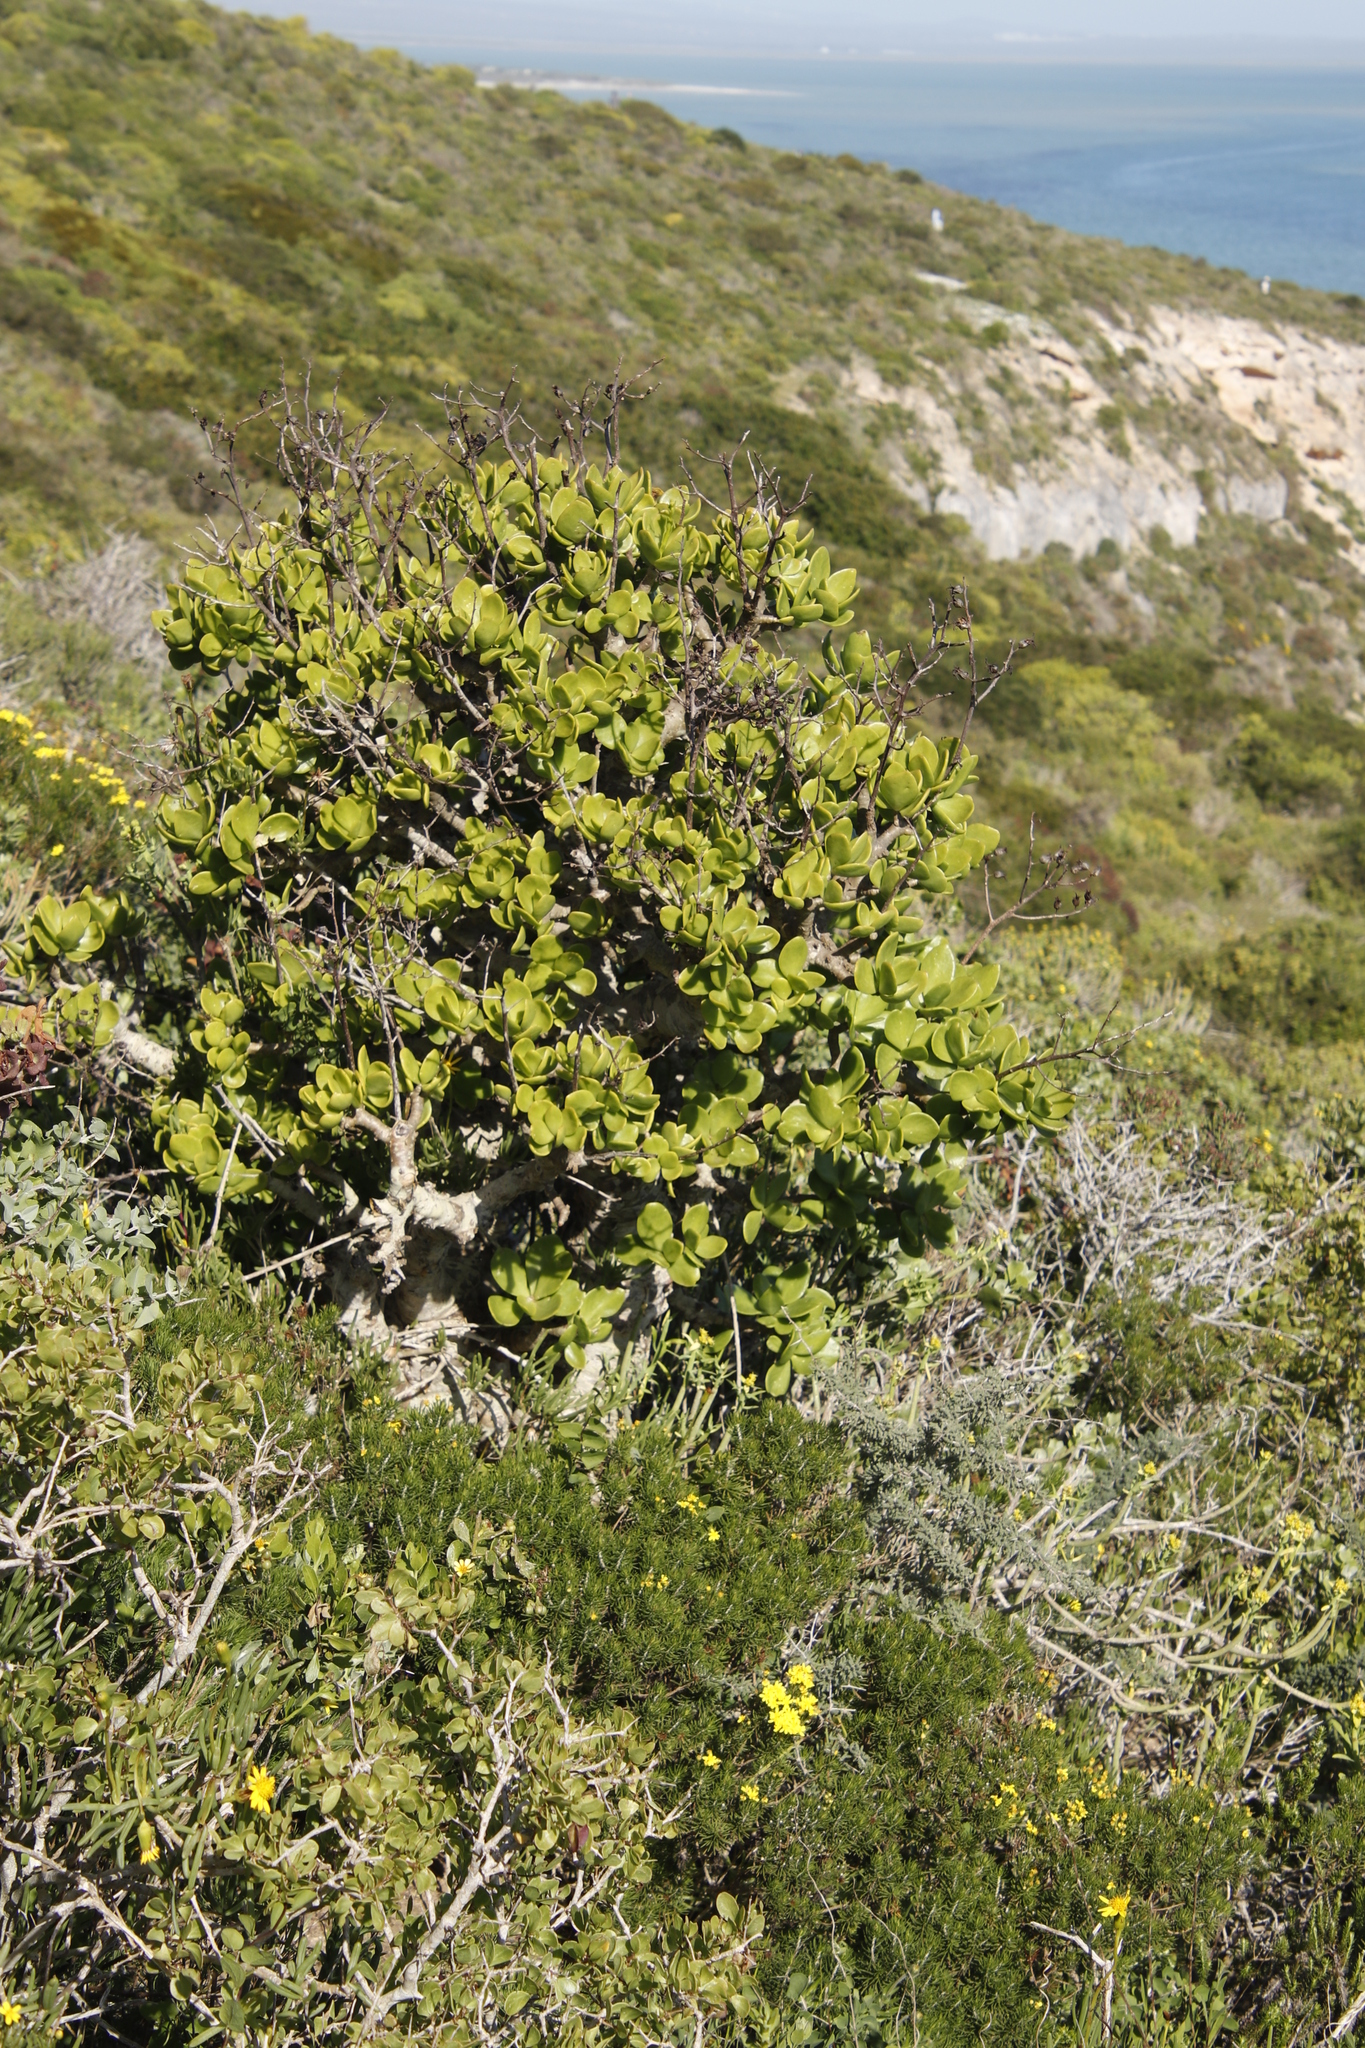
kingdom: Plantae
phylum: Tracheophyta
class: Magnoliopsida
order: Saxifragales
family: Crassulaceae
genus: Tylecodon
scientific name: Tylecodon paniculatus
